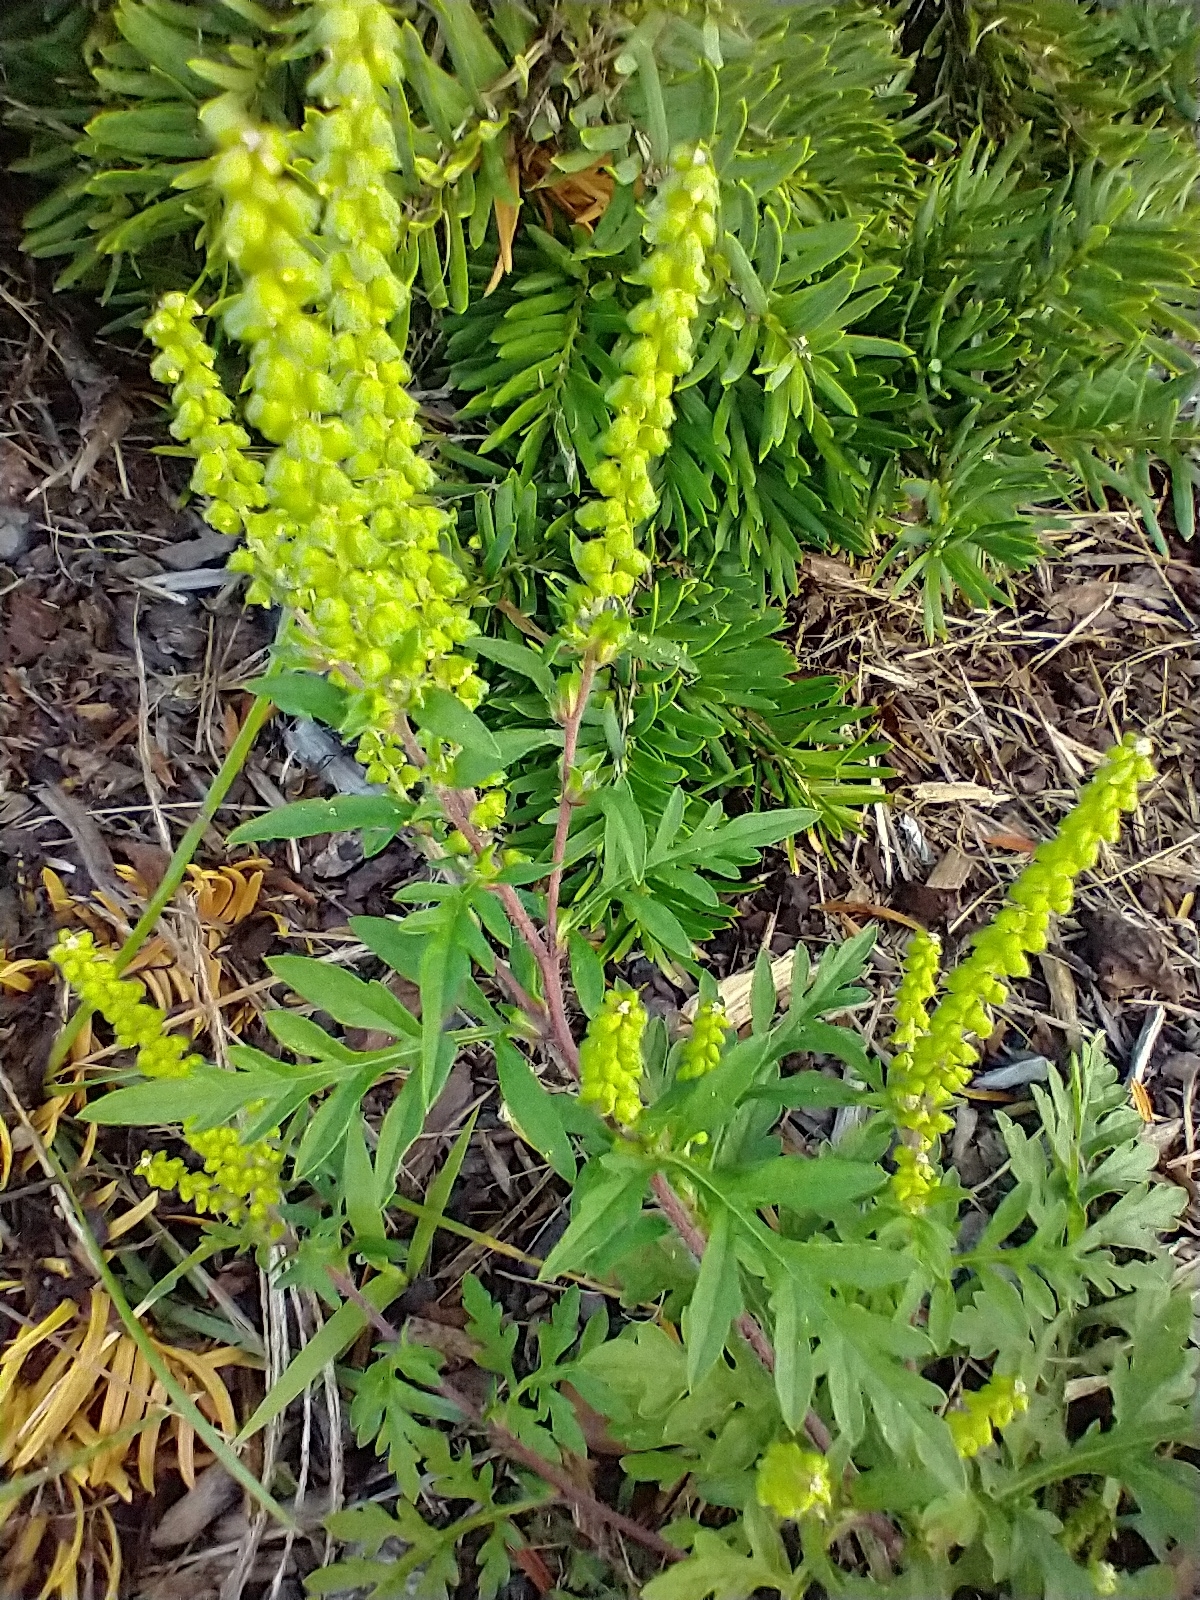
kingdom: Plantae
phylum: Tracheophyta
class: Magnoliopsida
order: Asterales
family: Asteraceae
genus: Ambrosia
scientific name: Ambrosia artemisiifolia
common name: Annual ragweed
